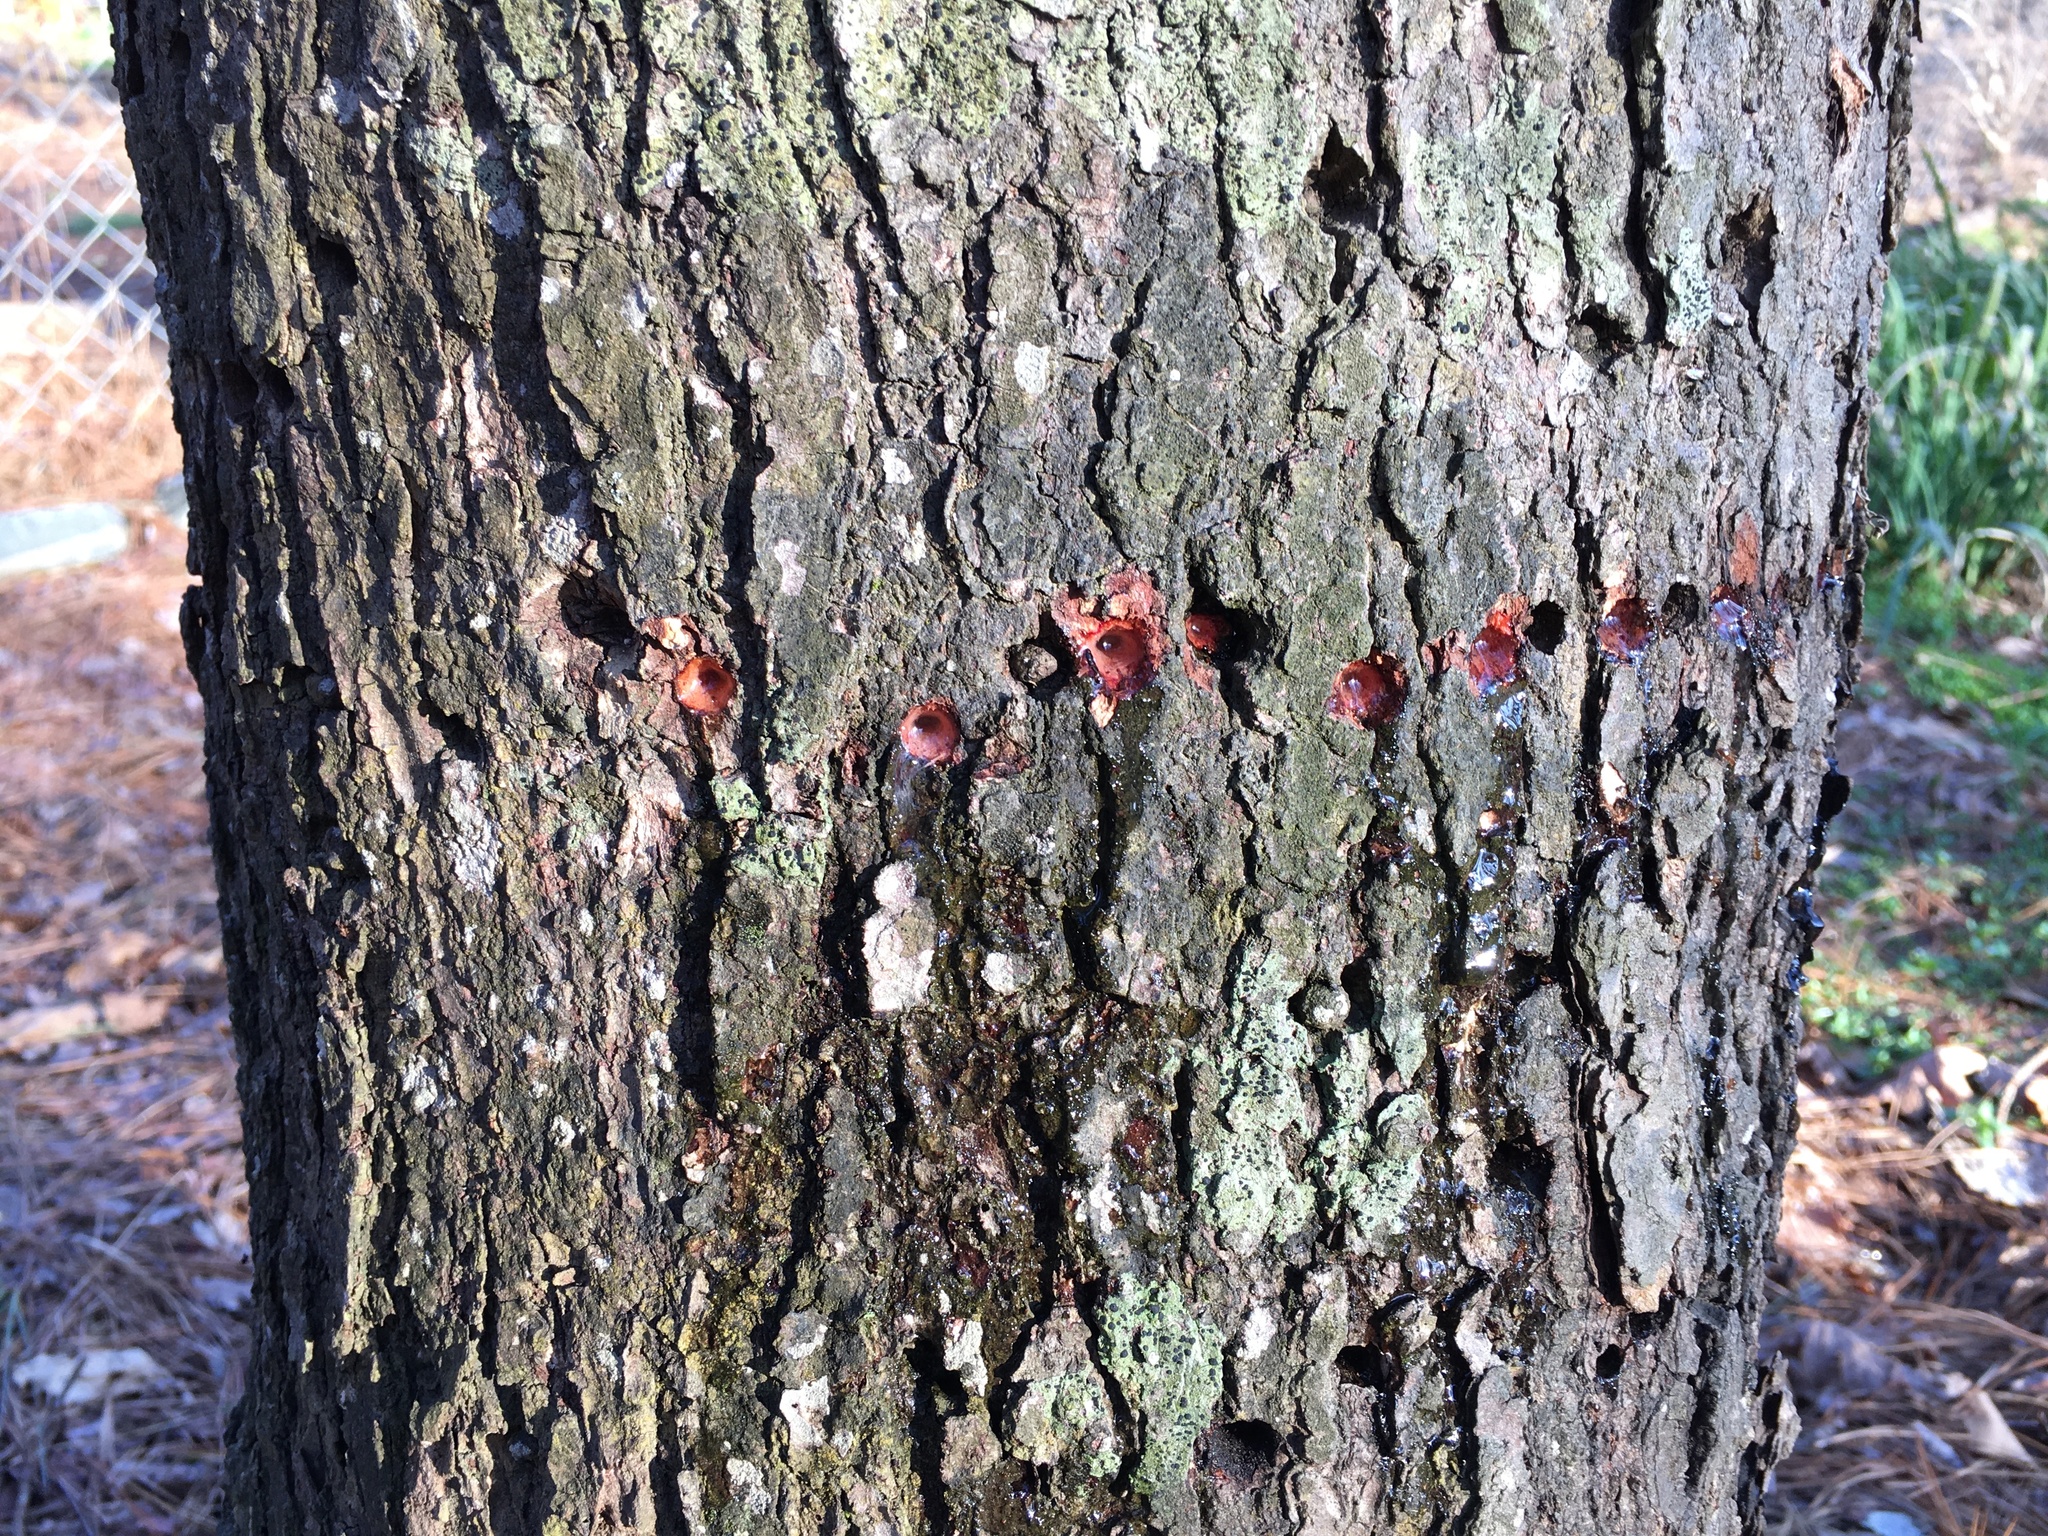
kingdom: Animalia
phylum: Chordata
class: Aves
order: Piciformes
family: Picidae
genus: Sphyrapicus
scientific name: Sphyrapicus varius
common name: Yellow-bellied sapsucker
